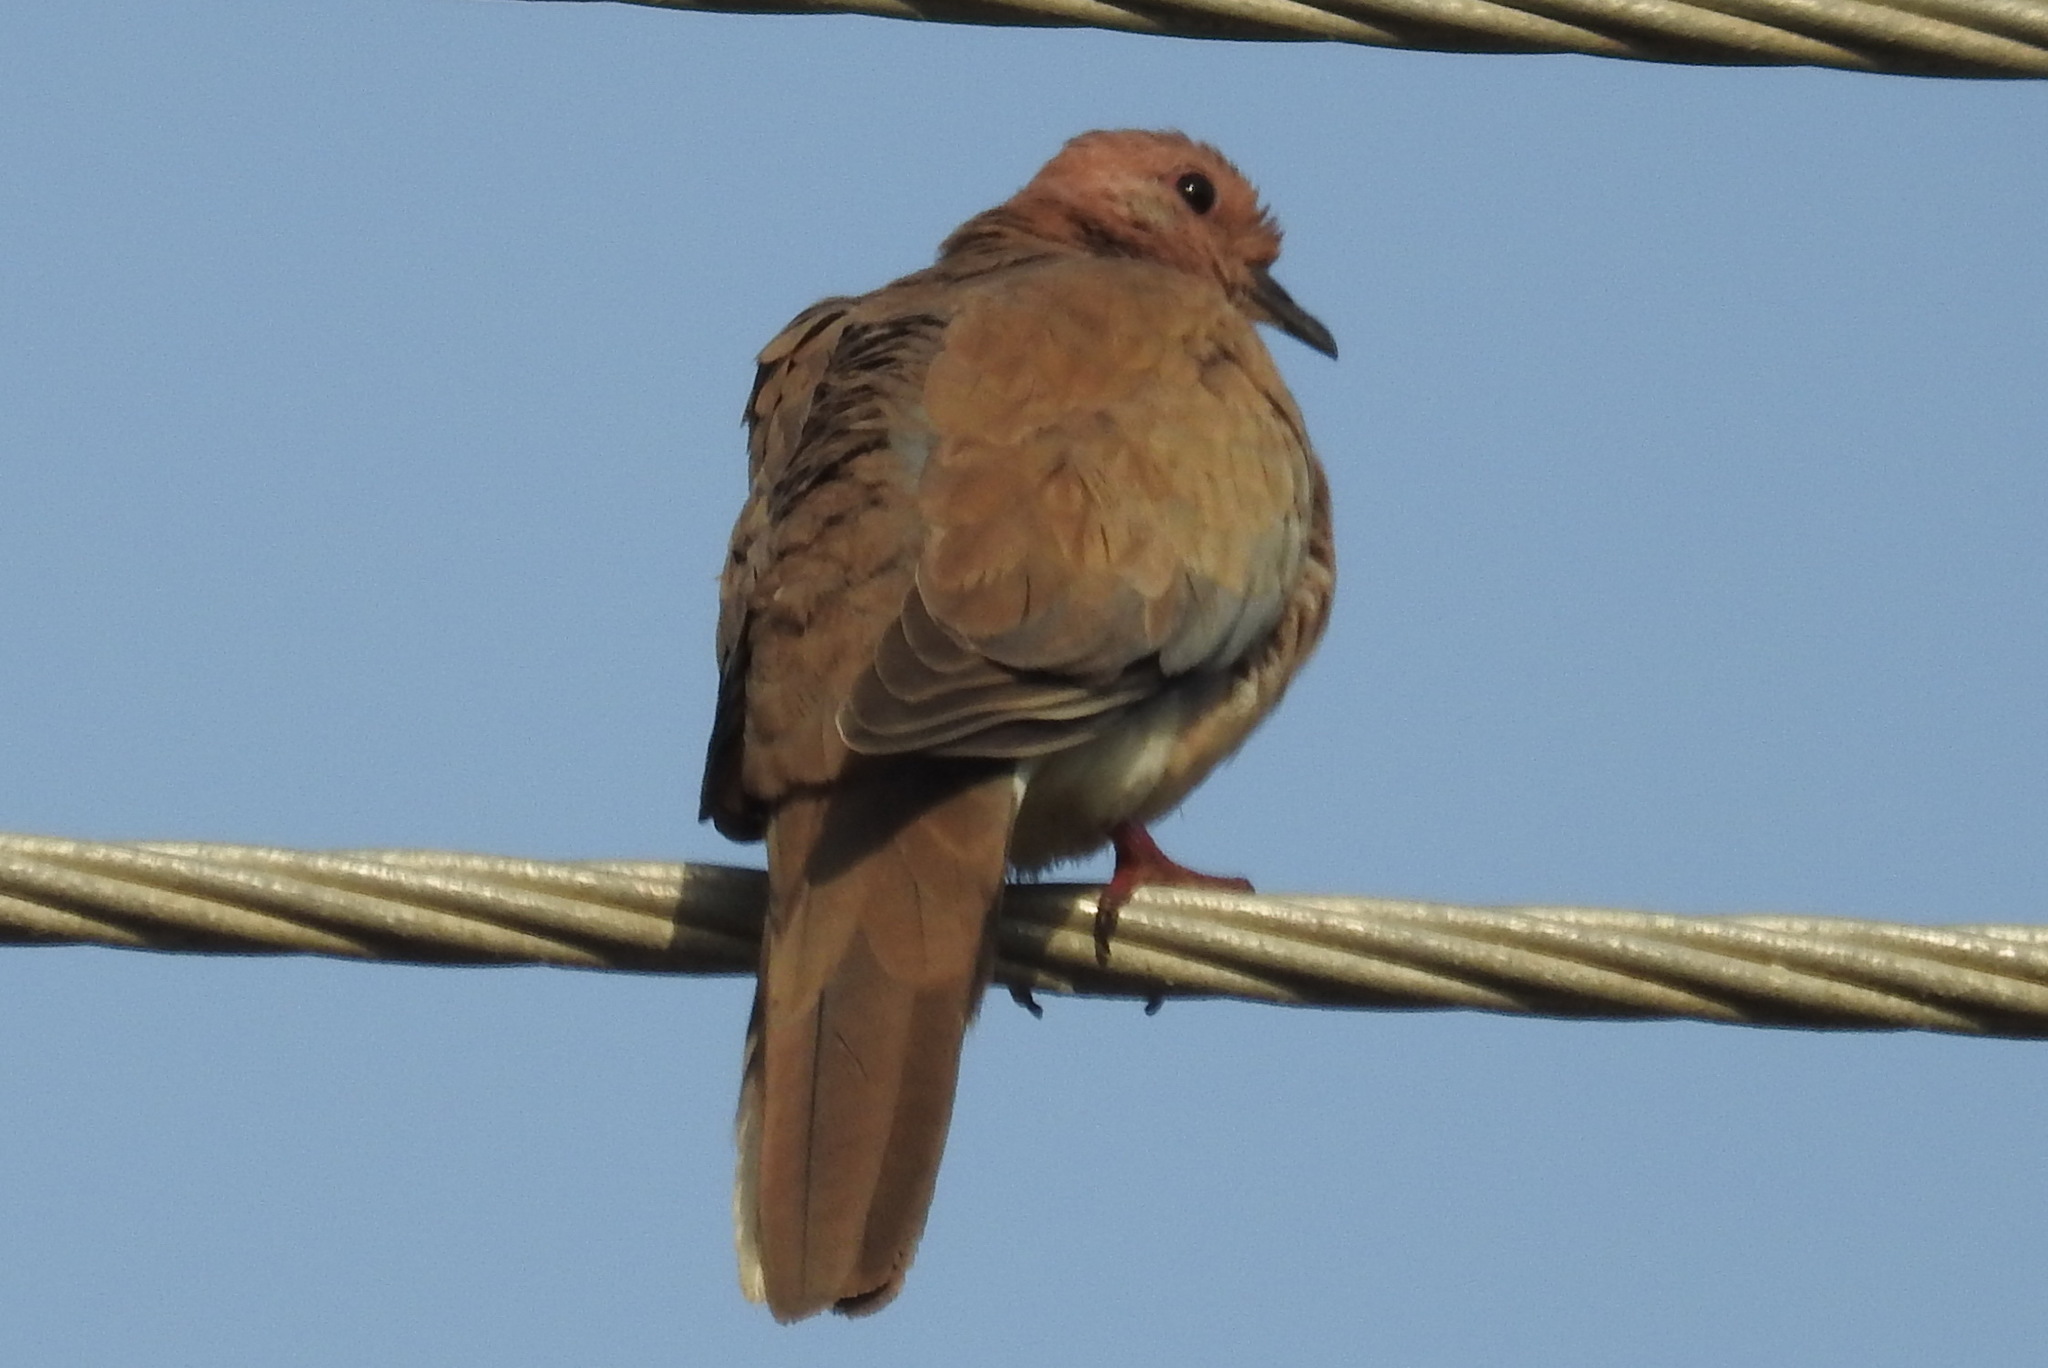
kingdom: Animalia
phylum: Chordata
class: Aves
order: Columbiformes
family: Columbidae
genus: Spilopelia
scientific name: Spilopelia senegalensis
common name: Laughing dove
